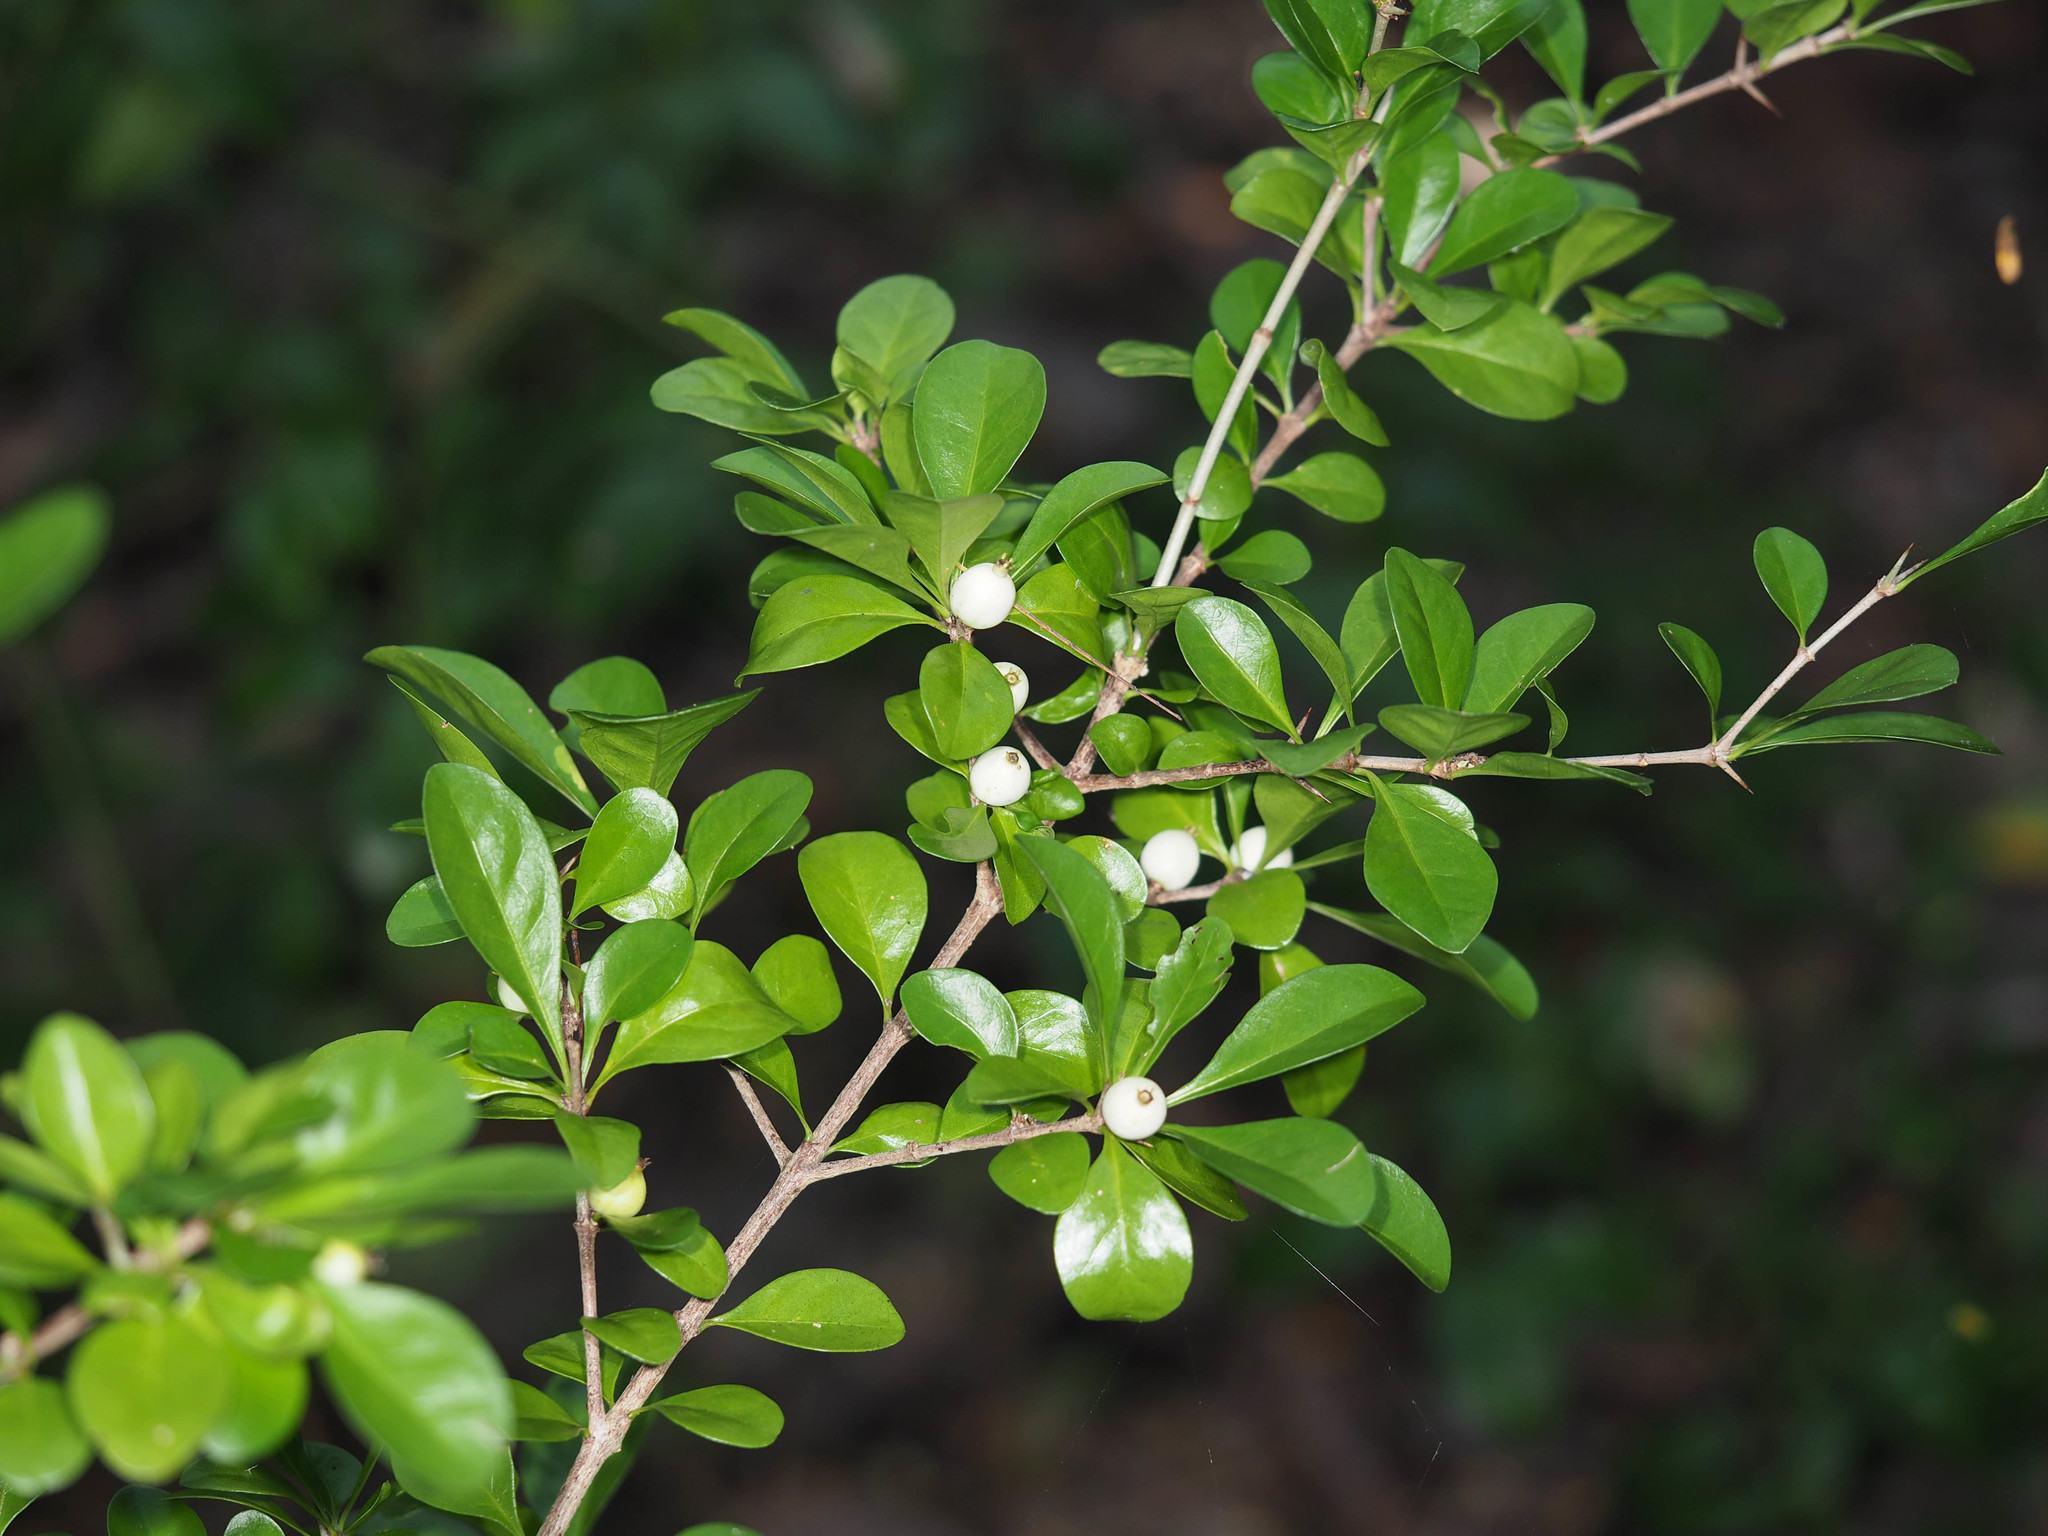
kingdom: Plantae
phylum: Tracheophyta
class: Magnoliopsida
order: Gentianales
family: Rubiaceae
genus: Randia
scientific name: Randia aculeata
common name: Inkberry
